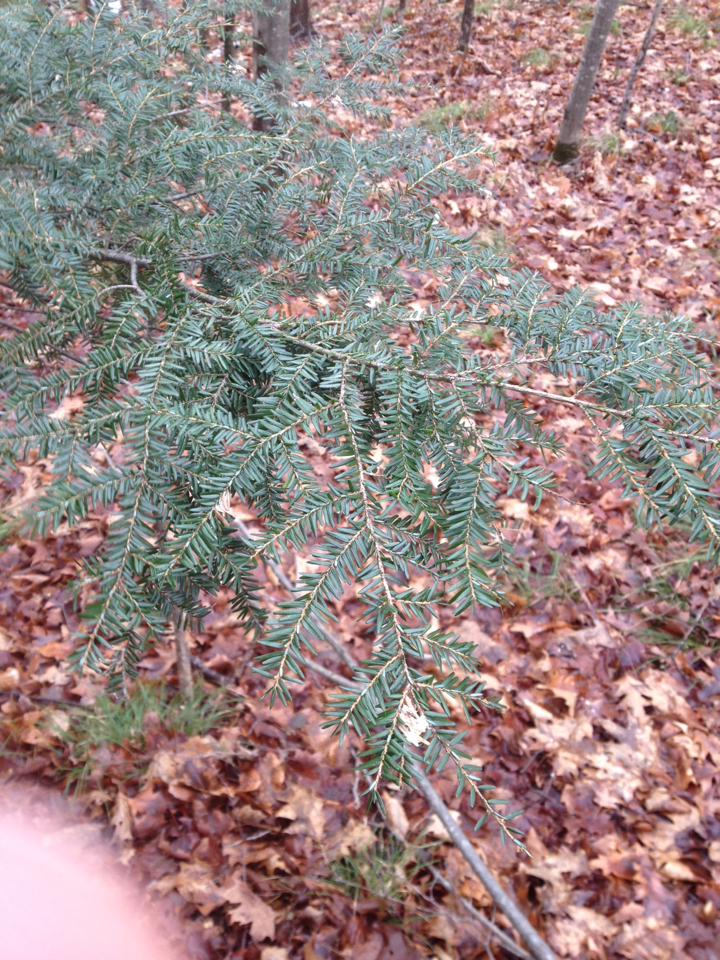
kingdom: Plantae
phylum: Tracheophyta
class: Pinopsida
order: Pinales
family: Pinaceae
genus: Tsuga
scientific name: Tsuga canadensis
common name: Eastern hemlock
